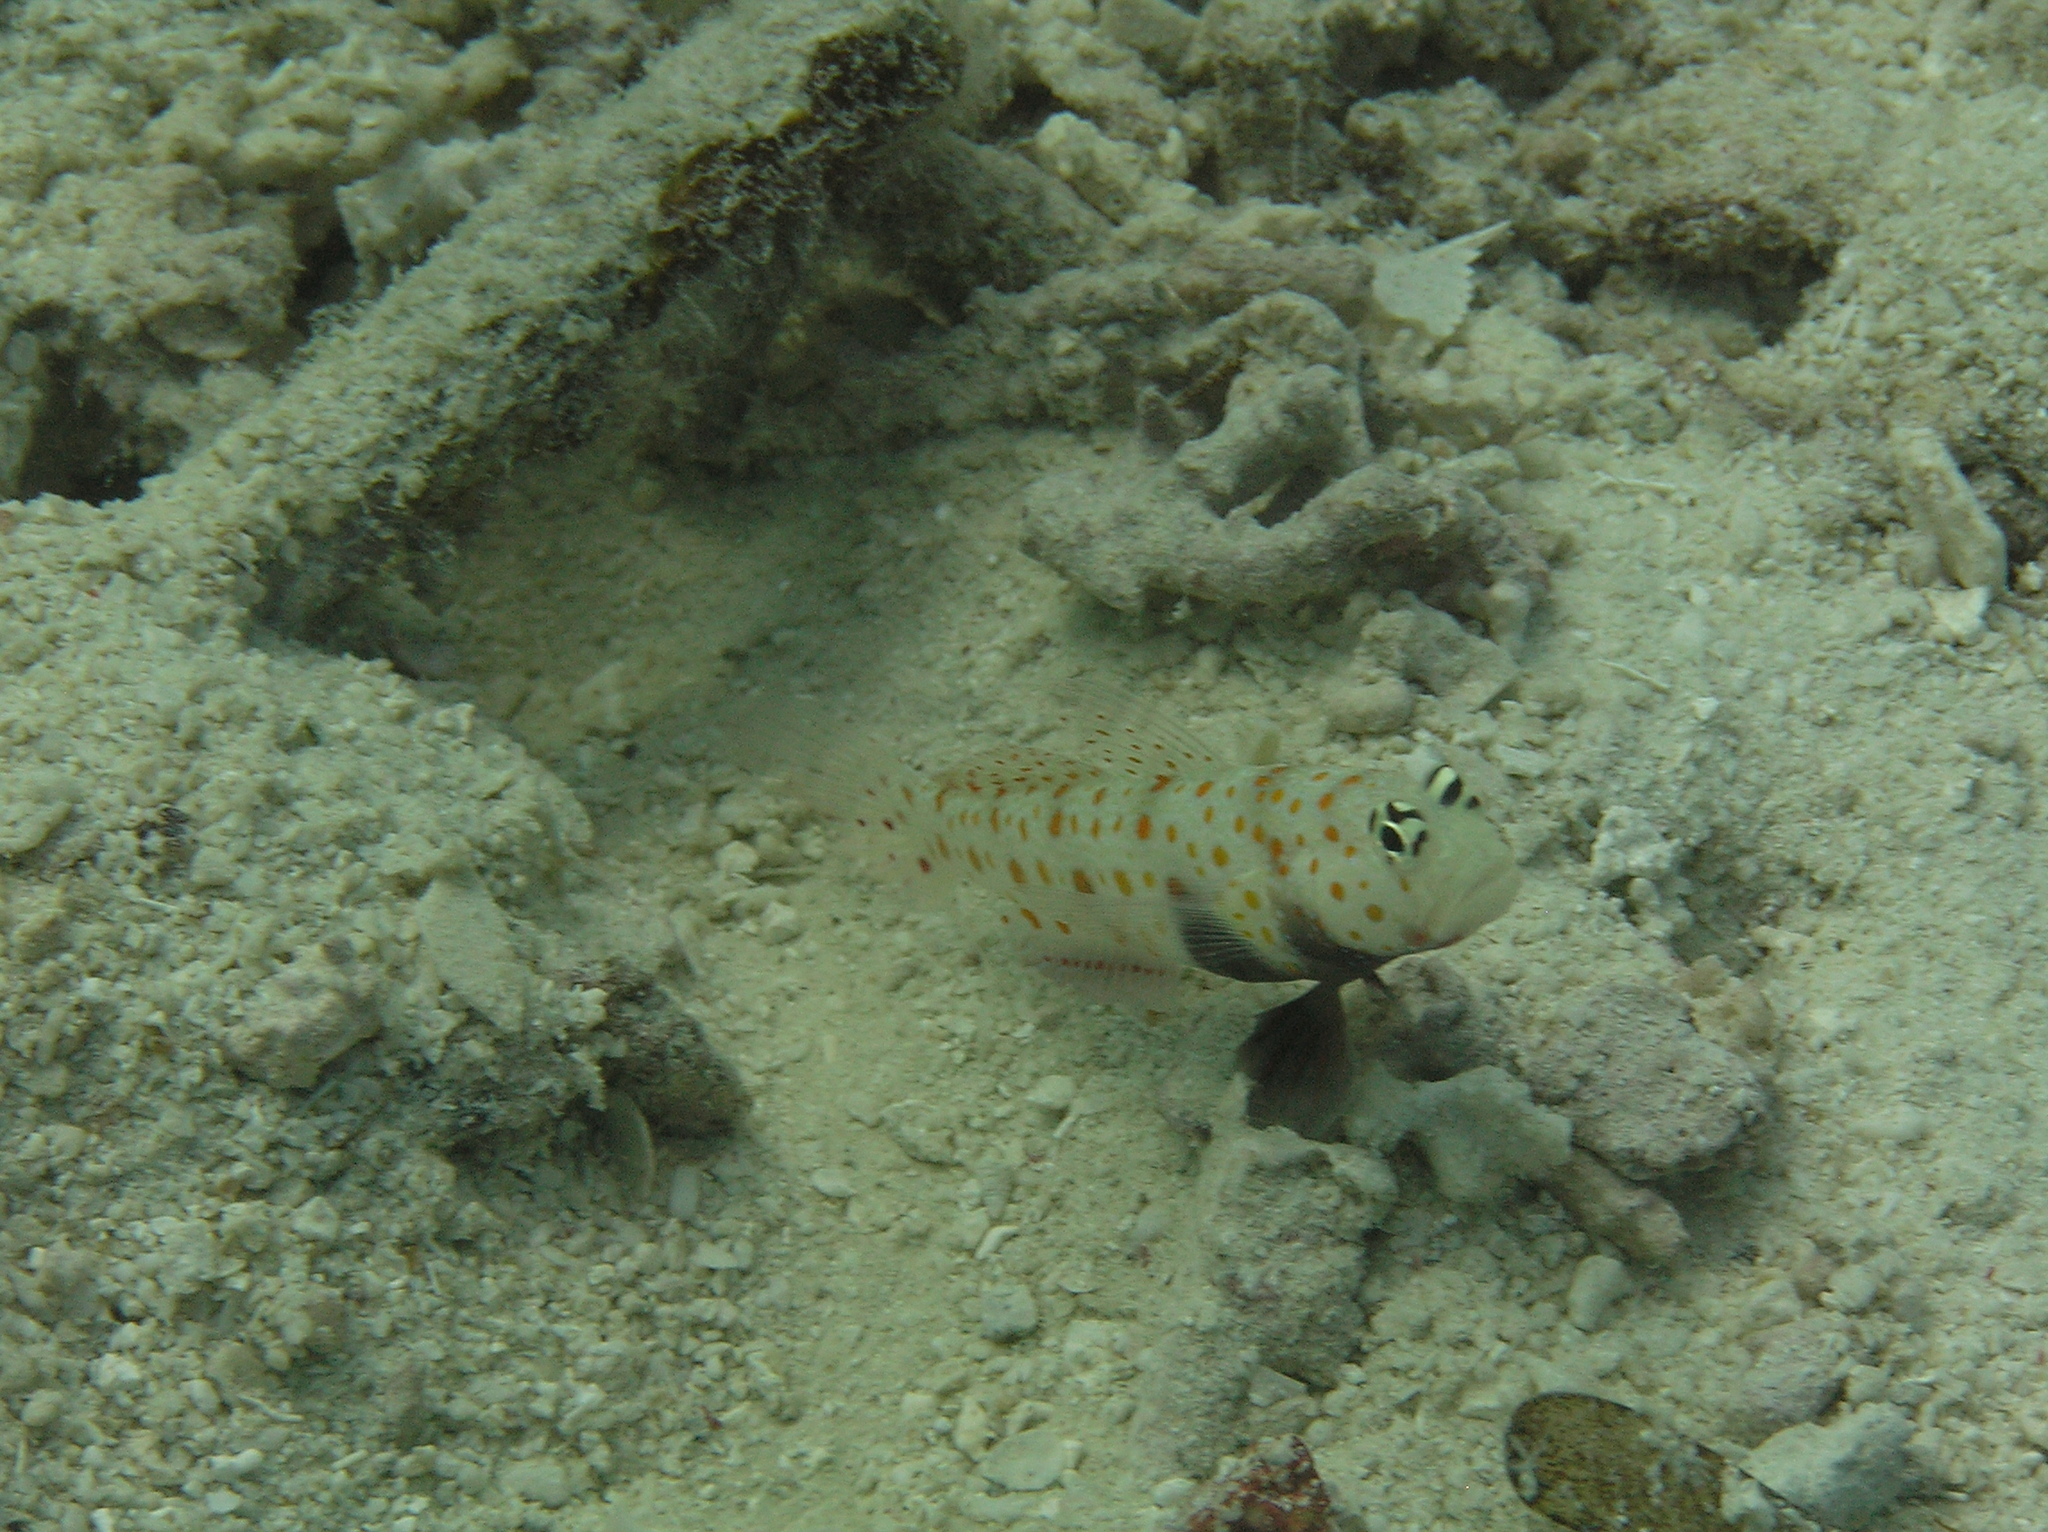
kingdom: Animalia
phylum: Chordata
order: Perciformes
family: Gobiidae
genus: Amblyeleotris
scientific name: Amblyeleotris guttata
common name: Black-chest shrimp-goby
